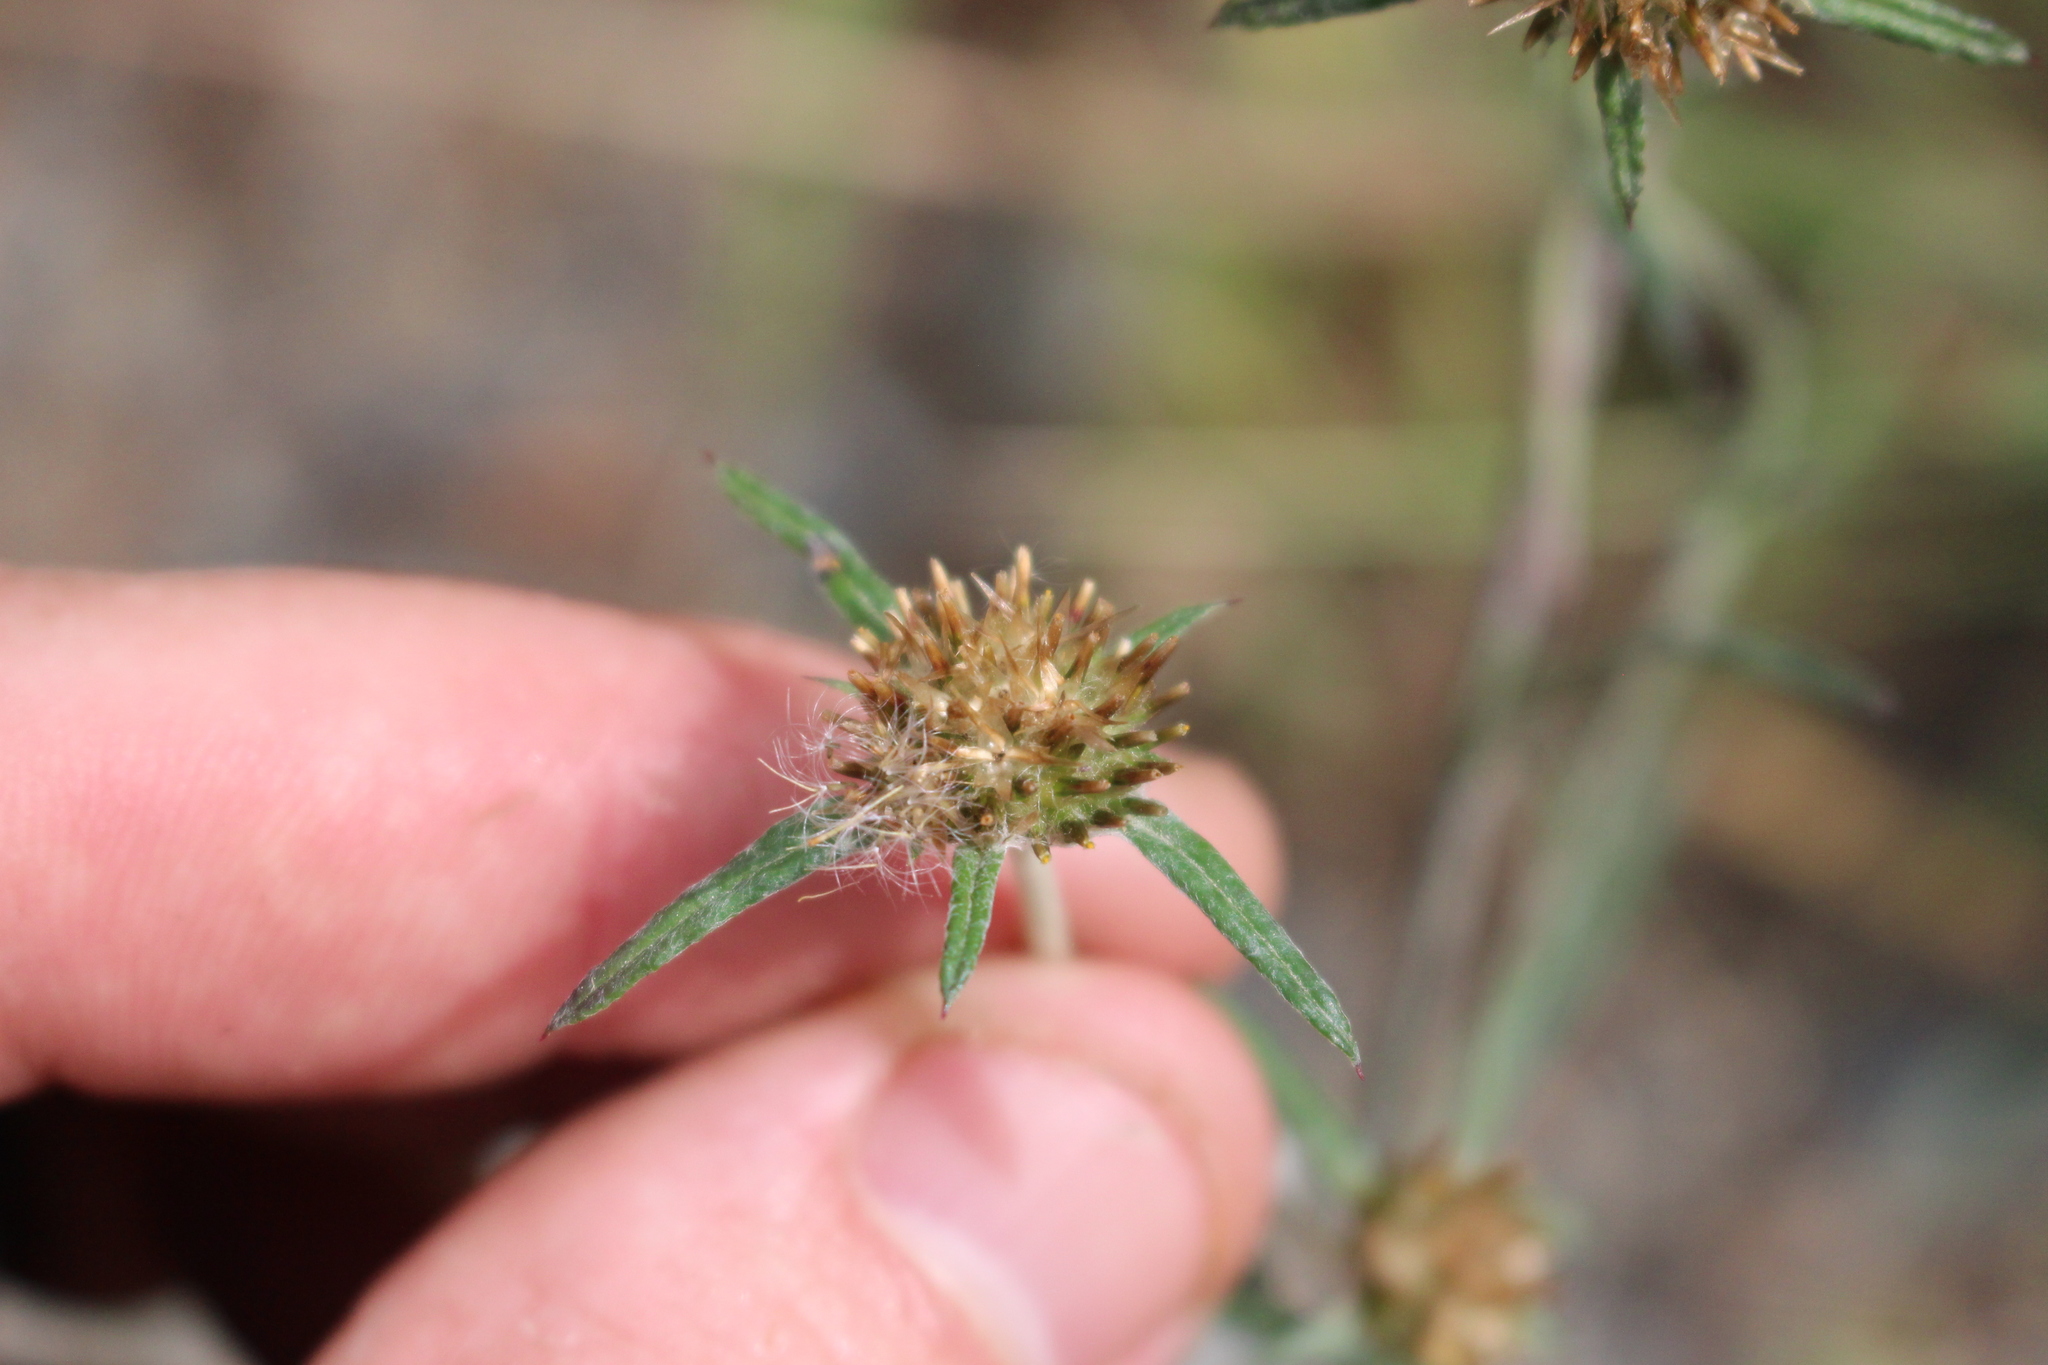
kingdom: Plantae
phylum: Tracheophyta
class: Magnoliopsida
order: Asterales
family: Asteraceae
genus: Euchiton
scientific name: Euchiton sphaericus
